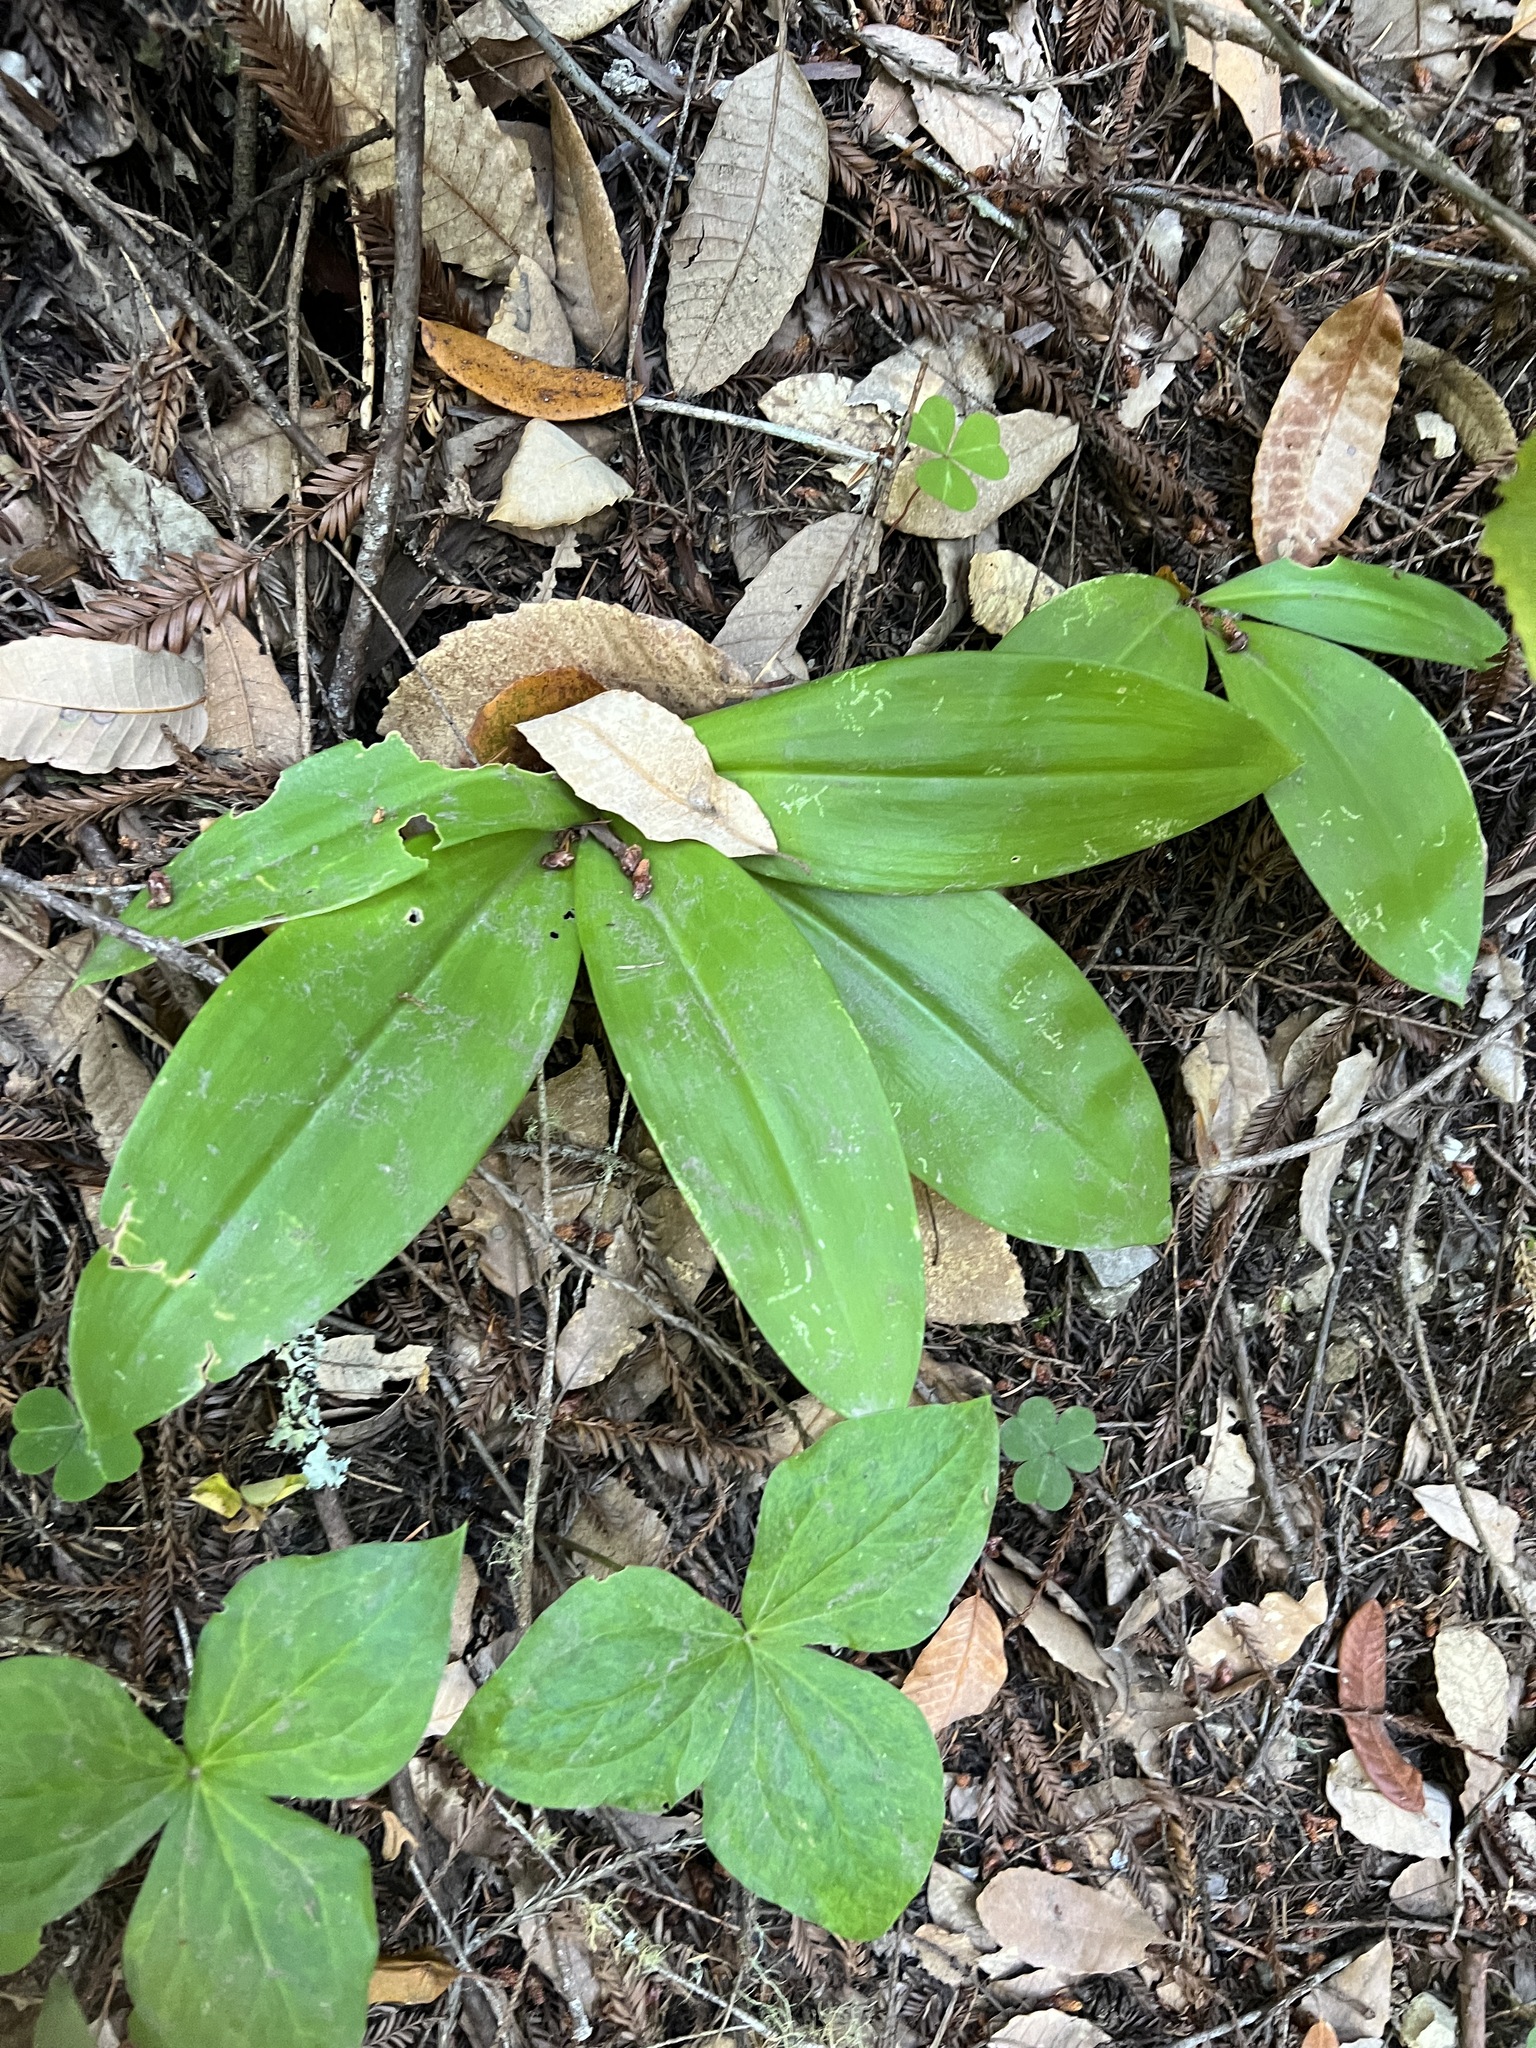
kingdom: Plantae
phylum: Tracheophyta
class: Liliopsida
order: Liliales
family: Liliaceae
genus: Clintonia
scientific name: Clintonia andrewsiana
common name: Red clintonia
